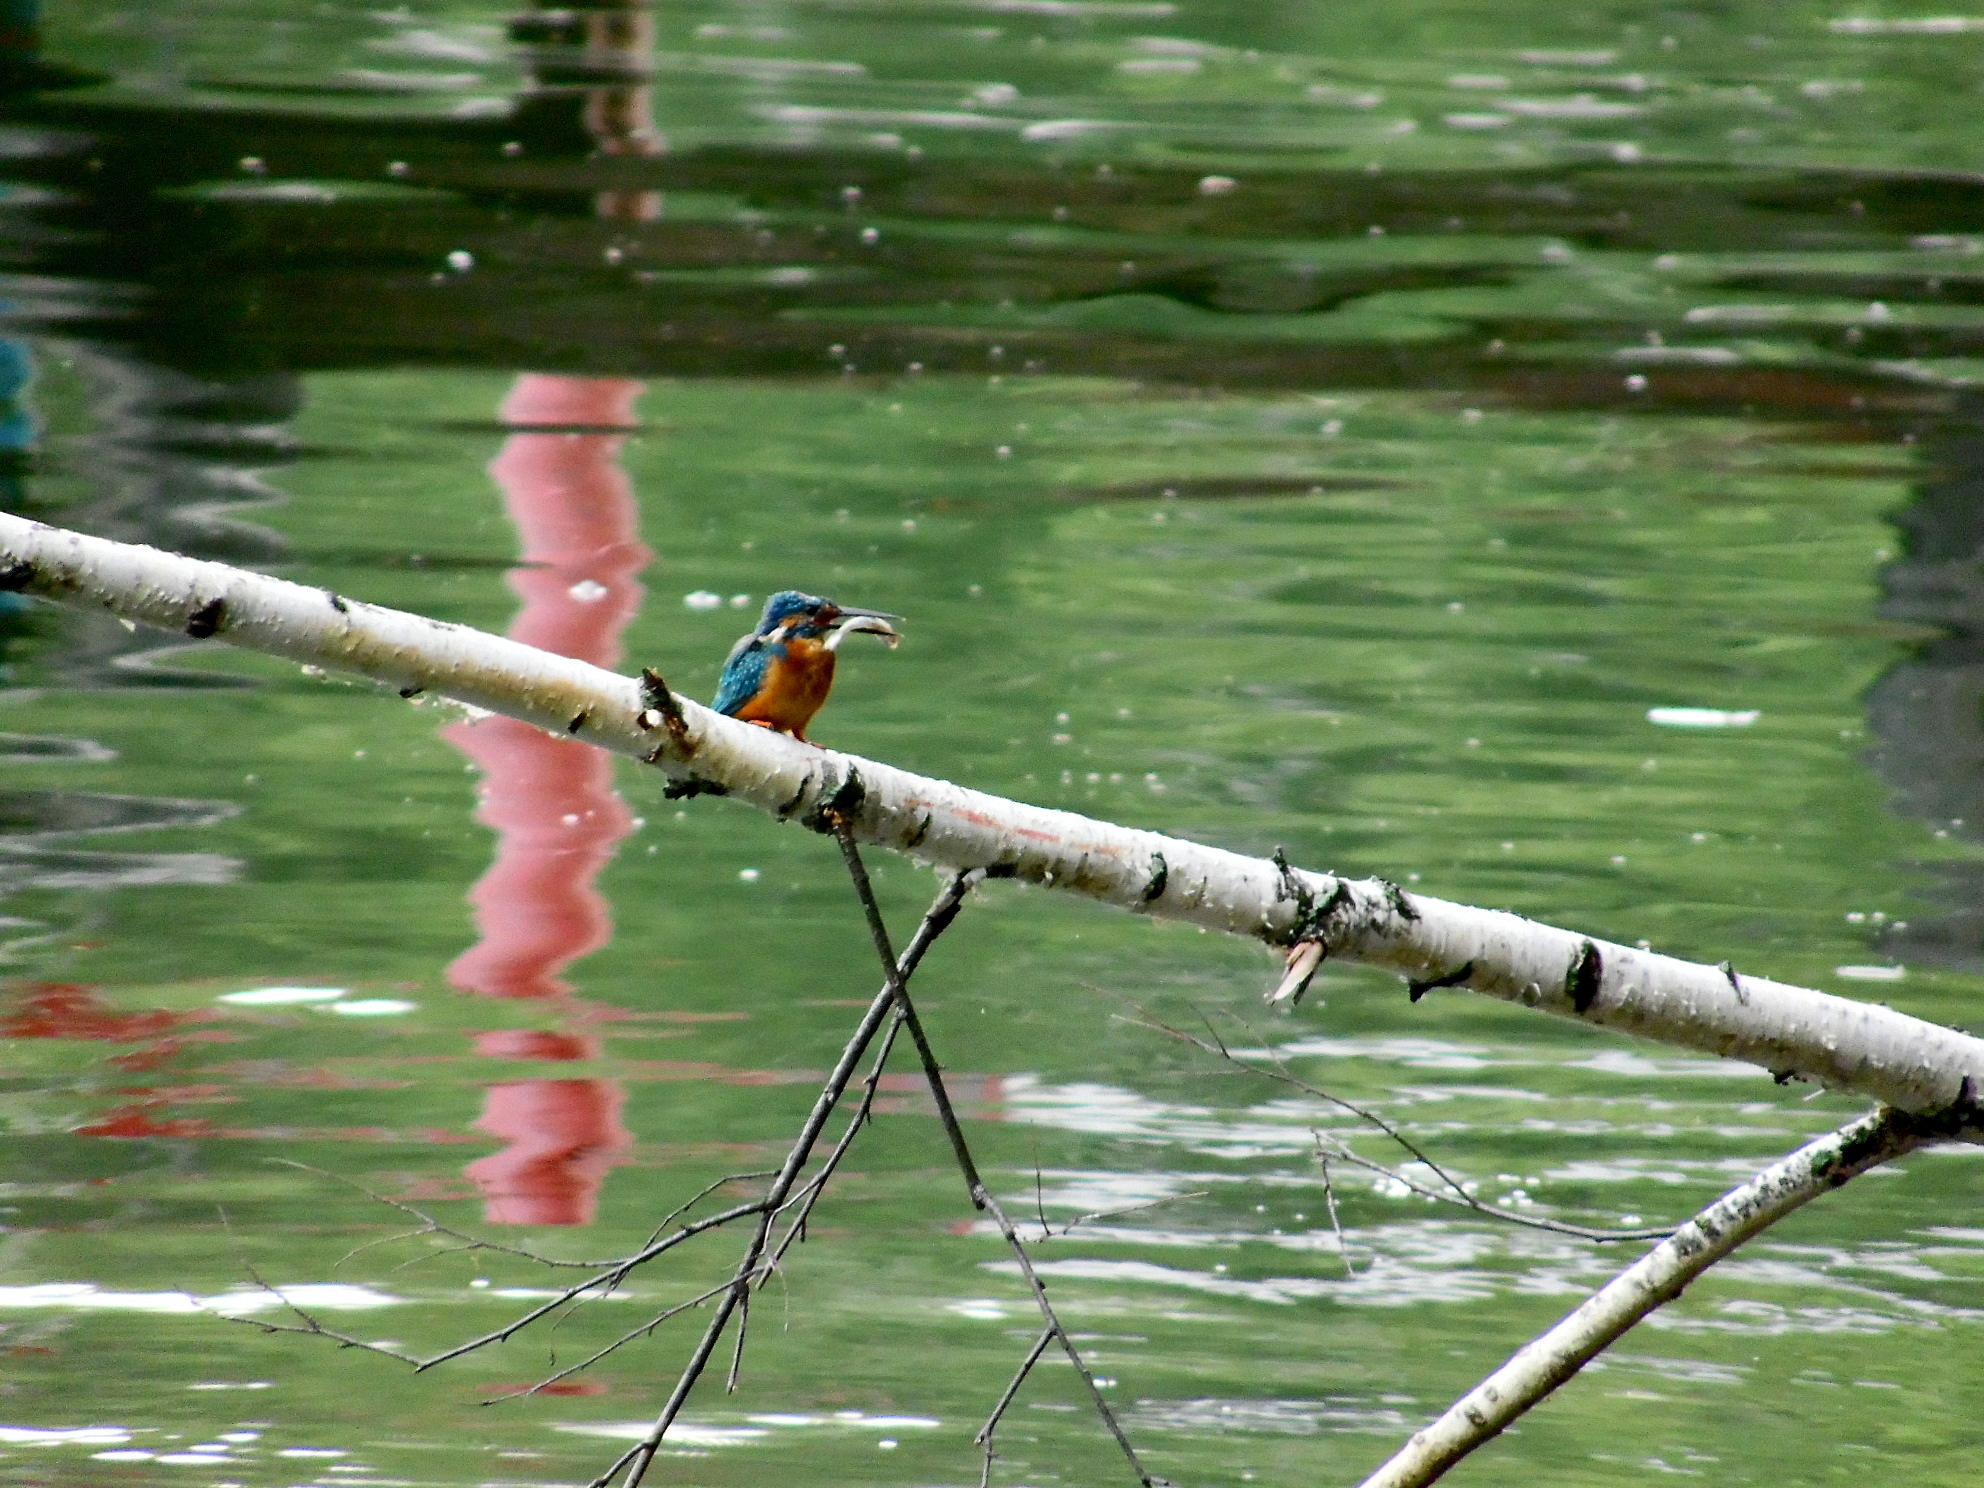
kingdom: Animalia
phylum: Chordata
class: Aves
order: Coraciiformes
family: Alcedinidae
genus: Alcedo
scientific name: Alcedo atthis
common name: Common kingfisher
